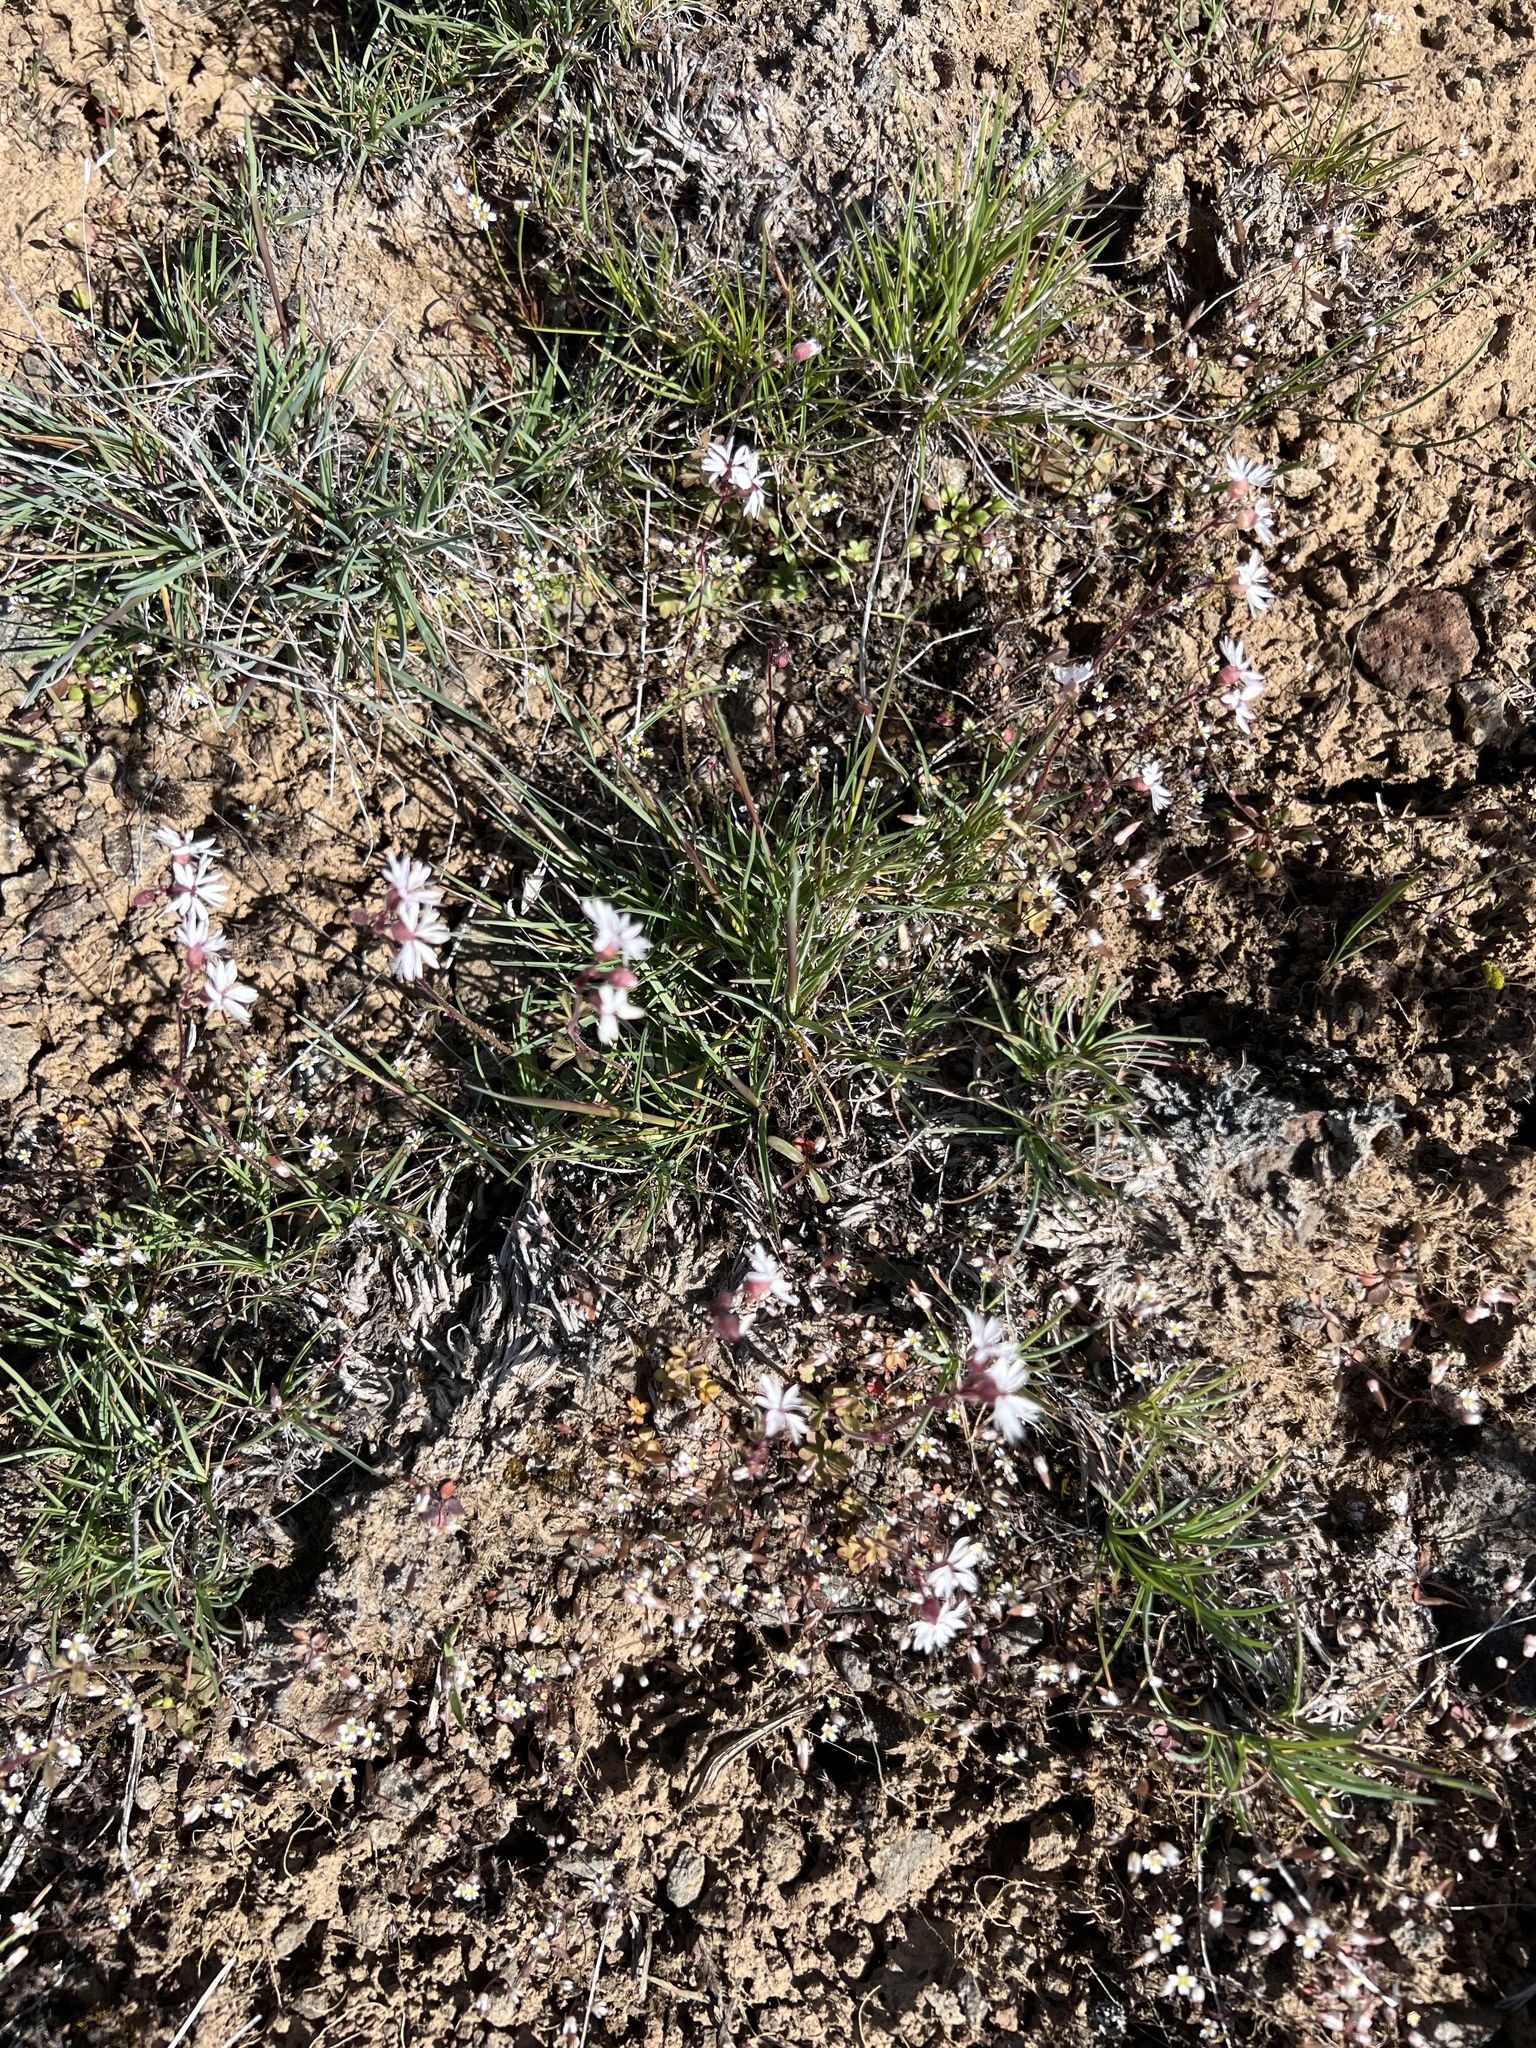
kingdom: Plantae
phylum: Tracheophyta
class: Magnoliopsida
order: Saxifragales
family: Saxifragaceae
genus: Lithophragma
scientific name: Lithophragma glabrum
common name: Bulbous prairie-star
